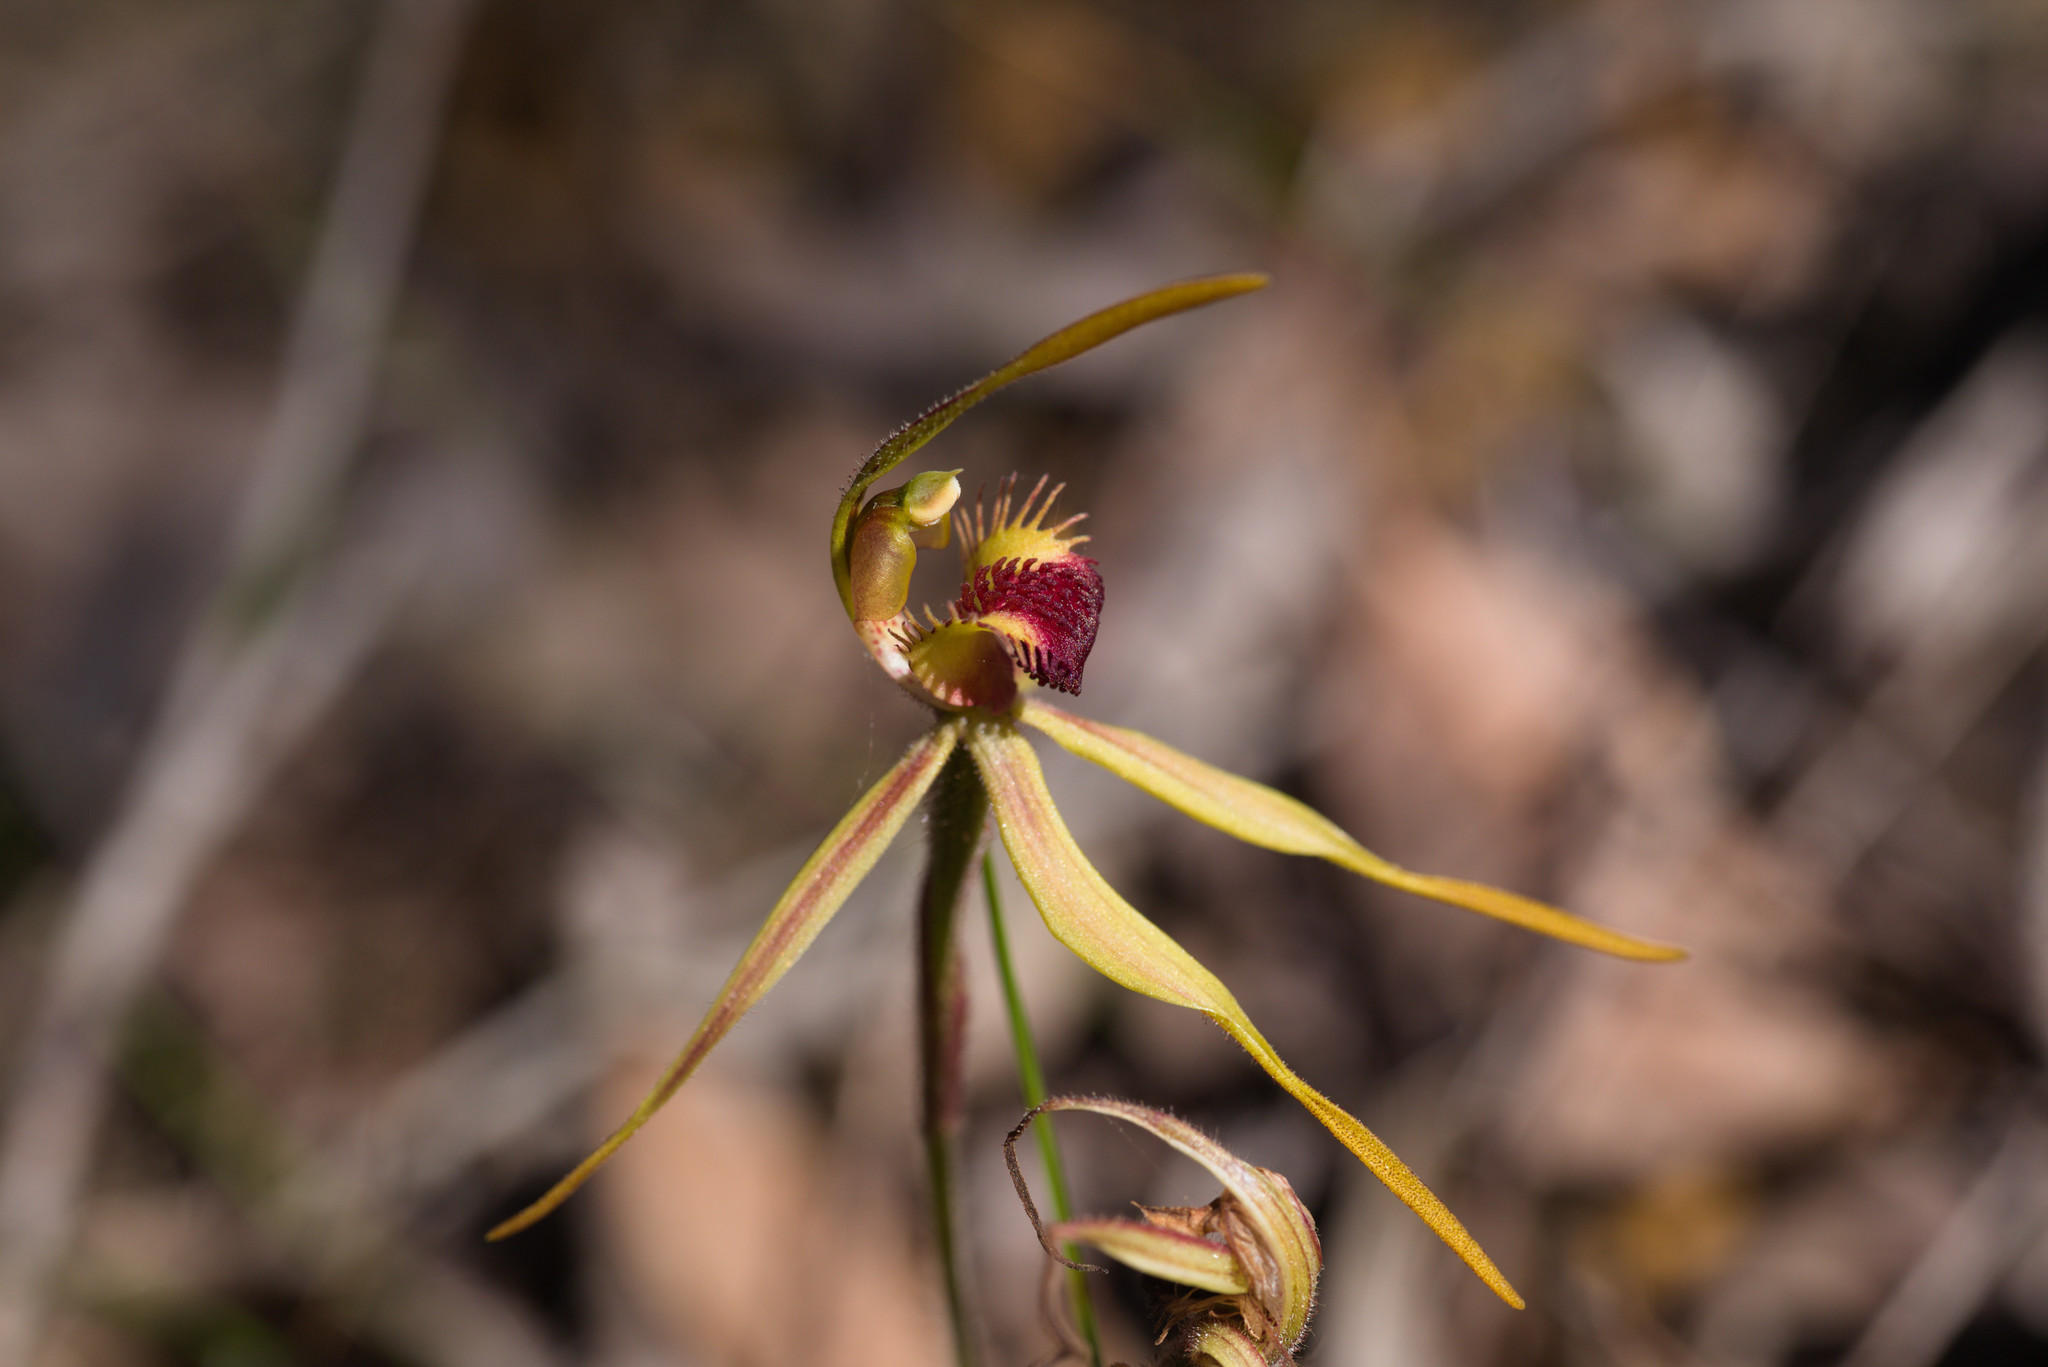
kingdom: Plantae
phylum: Tracheophyta
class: Liliopsida
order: Asparagales
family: Orchidaceae
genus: Caladenia
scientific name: Caladenia magniclavata
